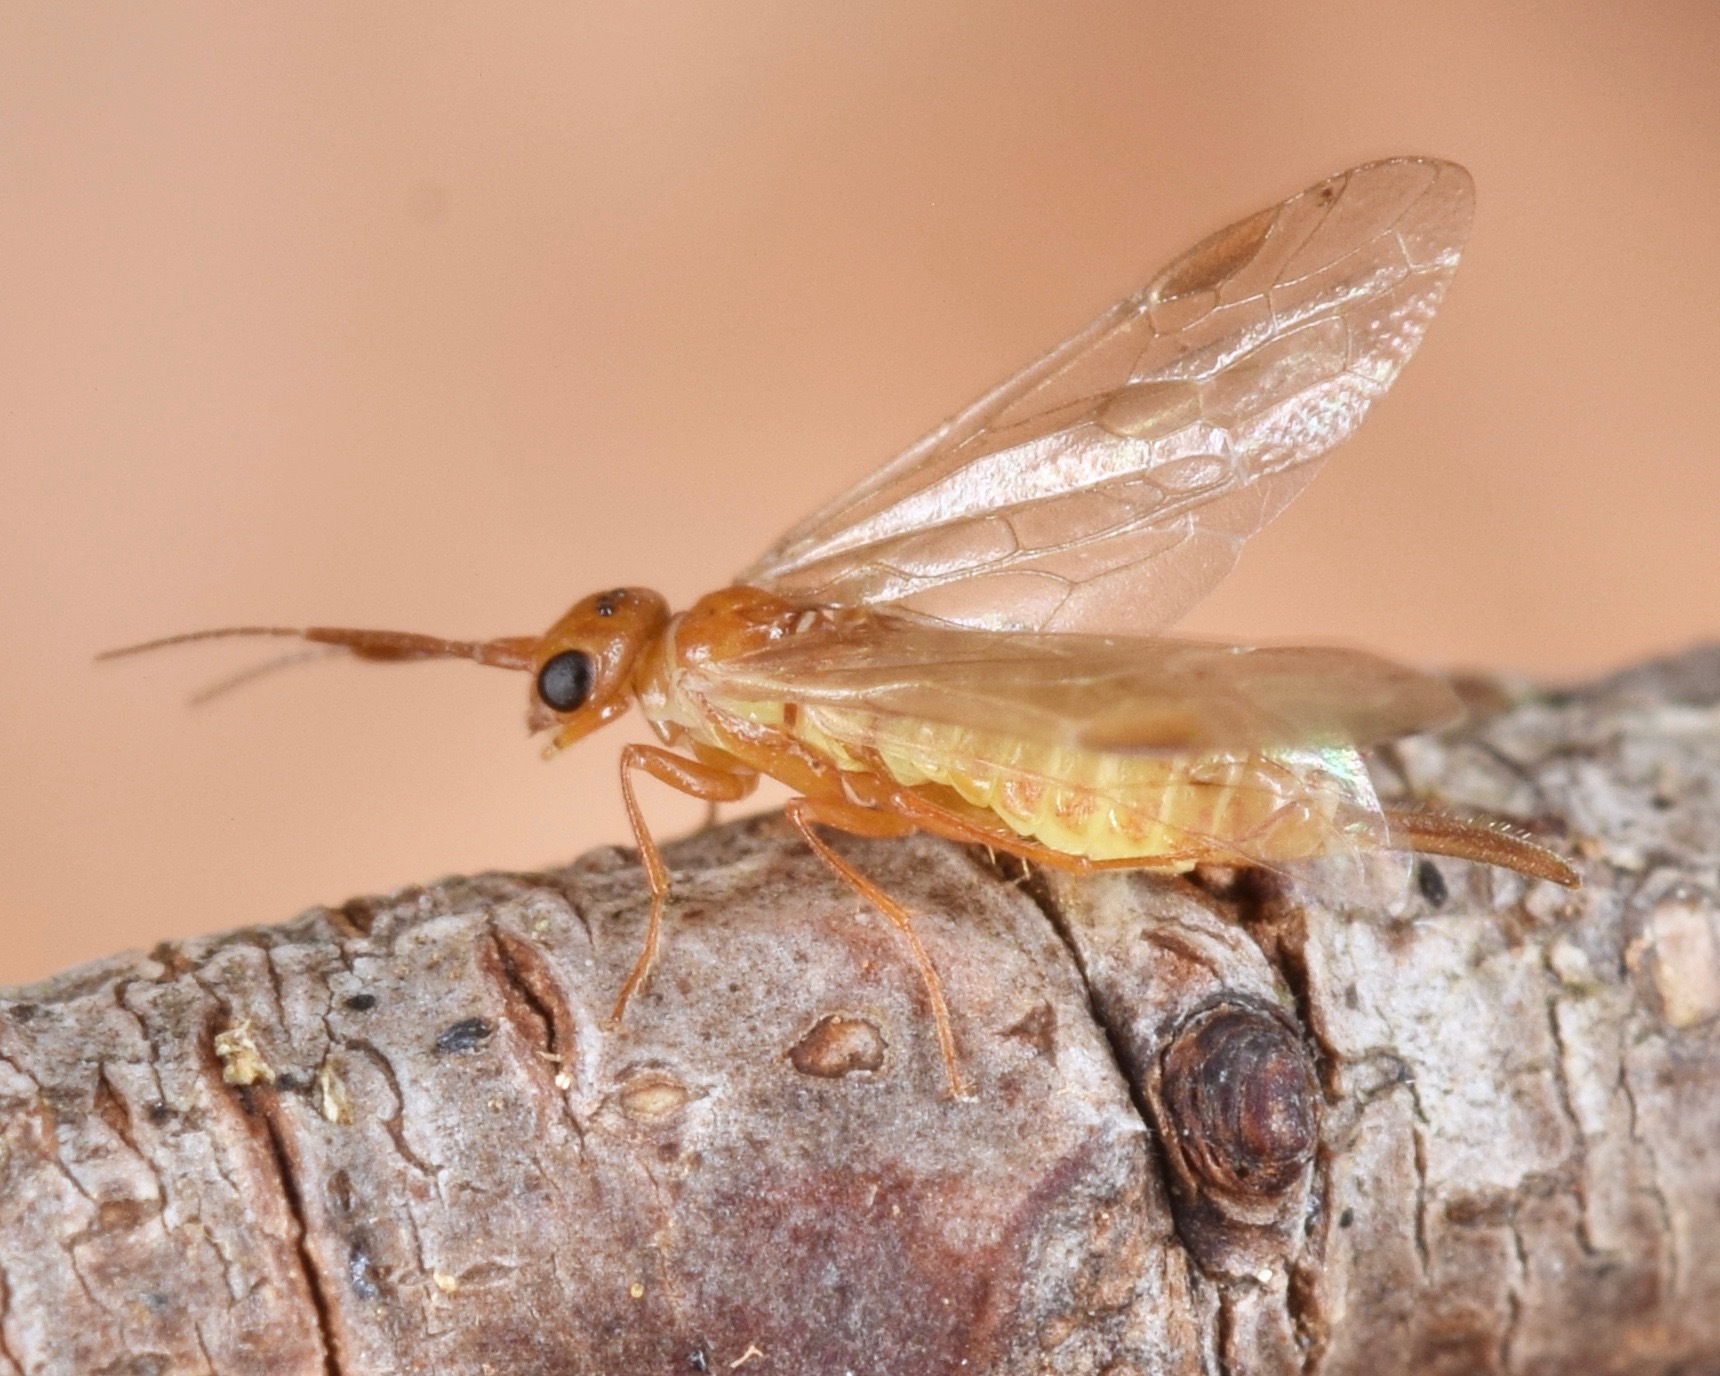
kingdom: Animalia
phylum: Arthropoda
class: Insecta
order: Hymenoptera
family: Xyelidae
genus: Xyela
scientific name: Xyela
